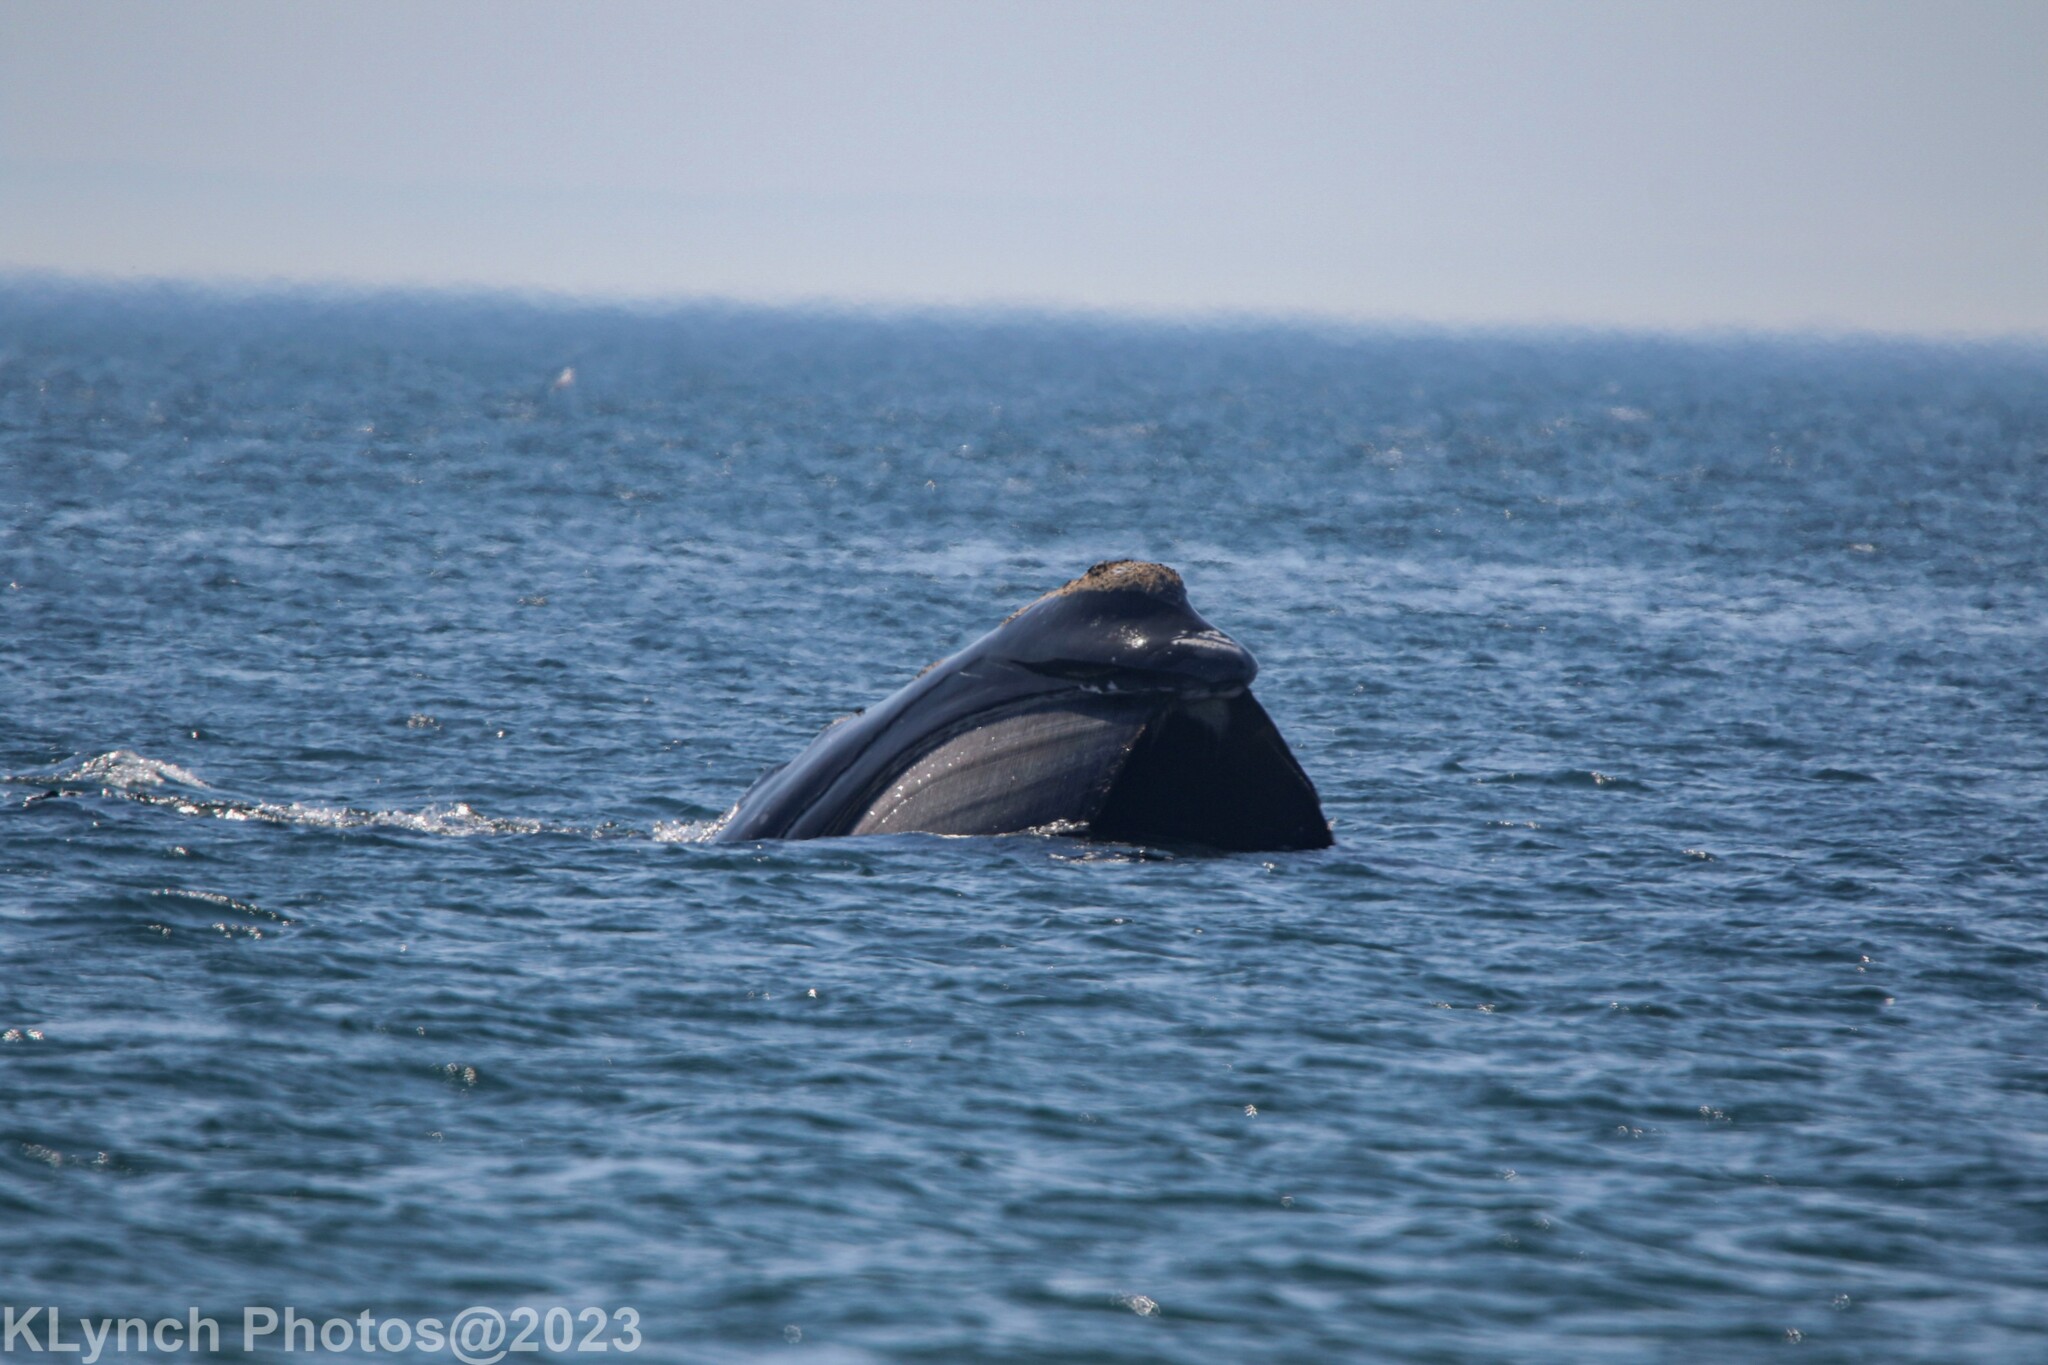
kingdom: Animalia
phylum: Chordata
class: Mammalia
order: Cetacea
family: Balaenidae
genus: Eubalaena
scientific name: Eubalaena glacialis
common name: North atlantic right whale
